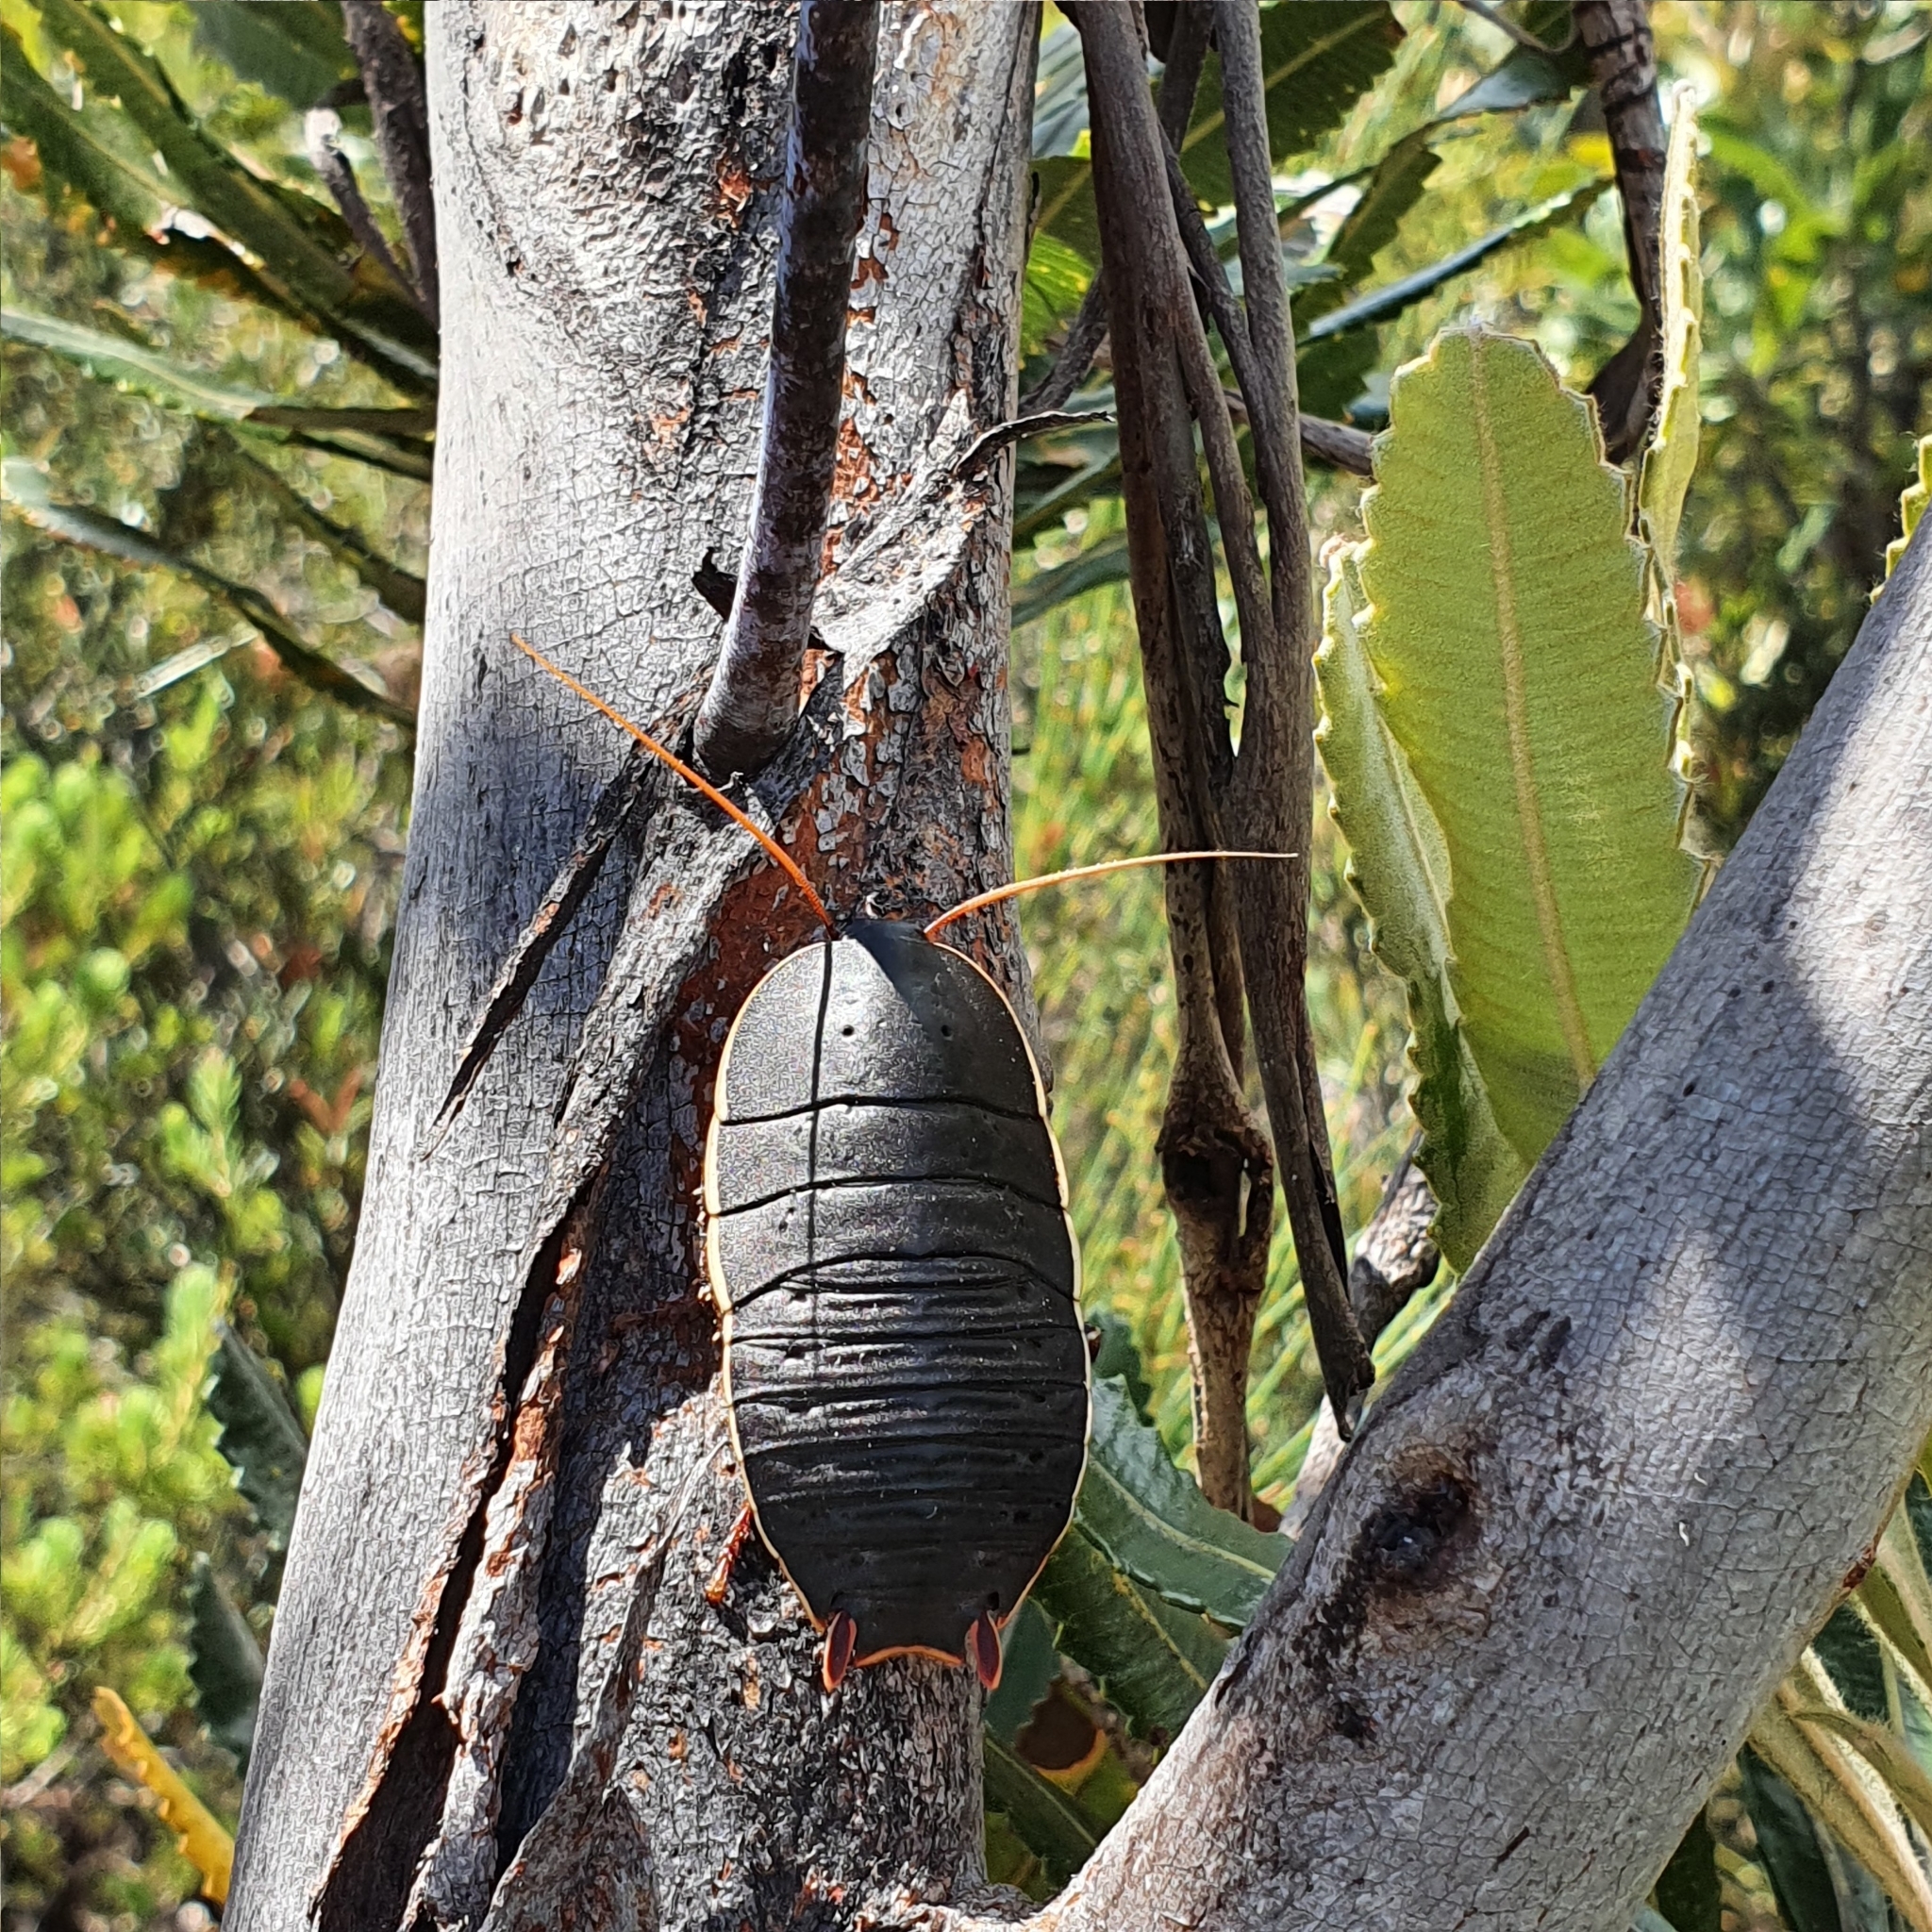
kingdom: Animalia
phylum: Arthropoda
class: Insecta
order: Blattodea
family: Blattidae
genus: Polyzosteria
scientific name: Polyzosteria limbata
